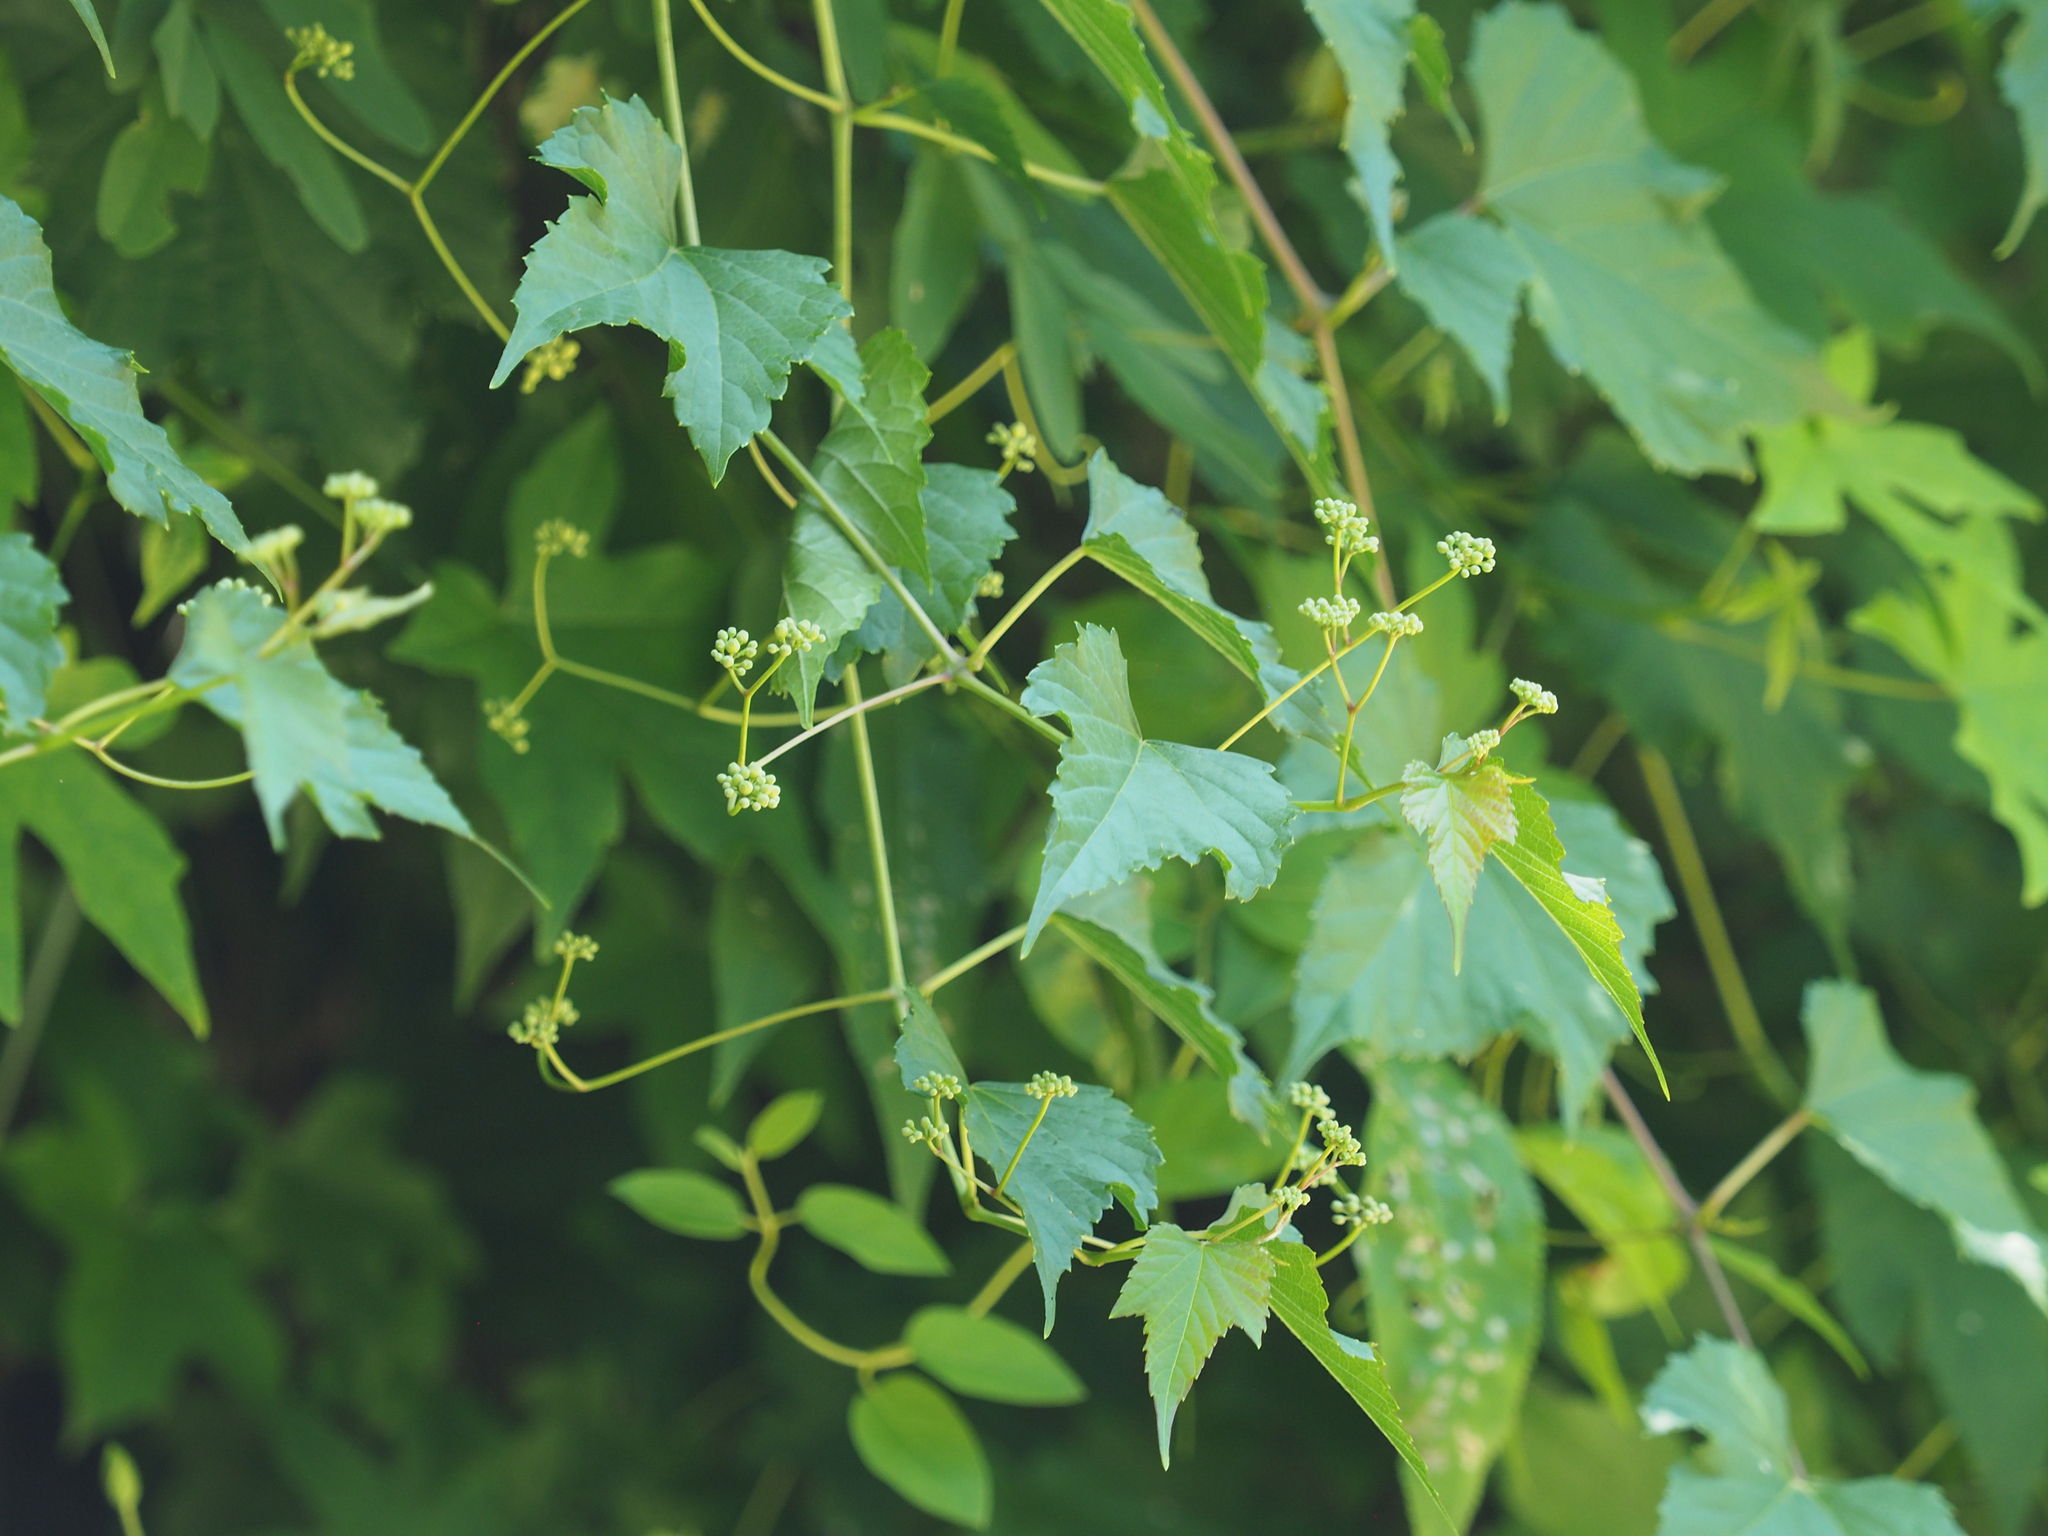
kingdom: Plantae
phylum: Tracheophyta
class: Magnoliopsida
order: Vitales
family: Vitaceae
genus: Ampelopsis
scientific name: Ampelopsis glandulosa
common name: Amur peppervine
